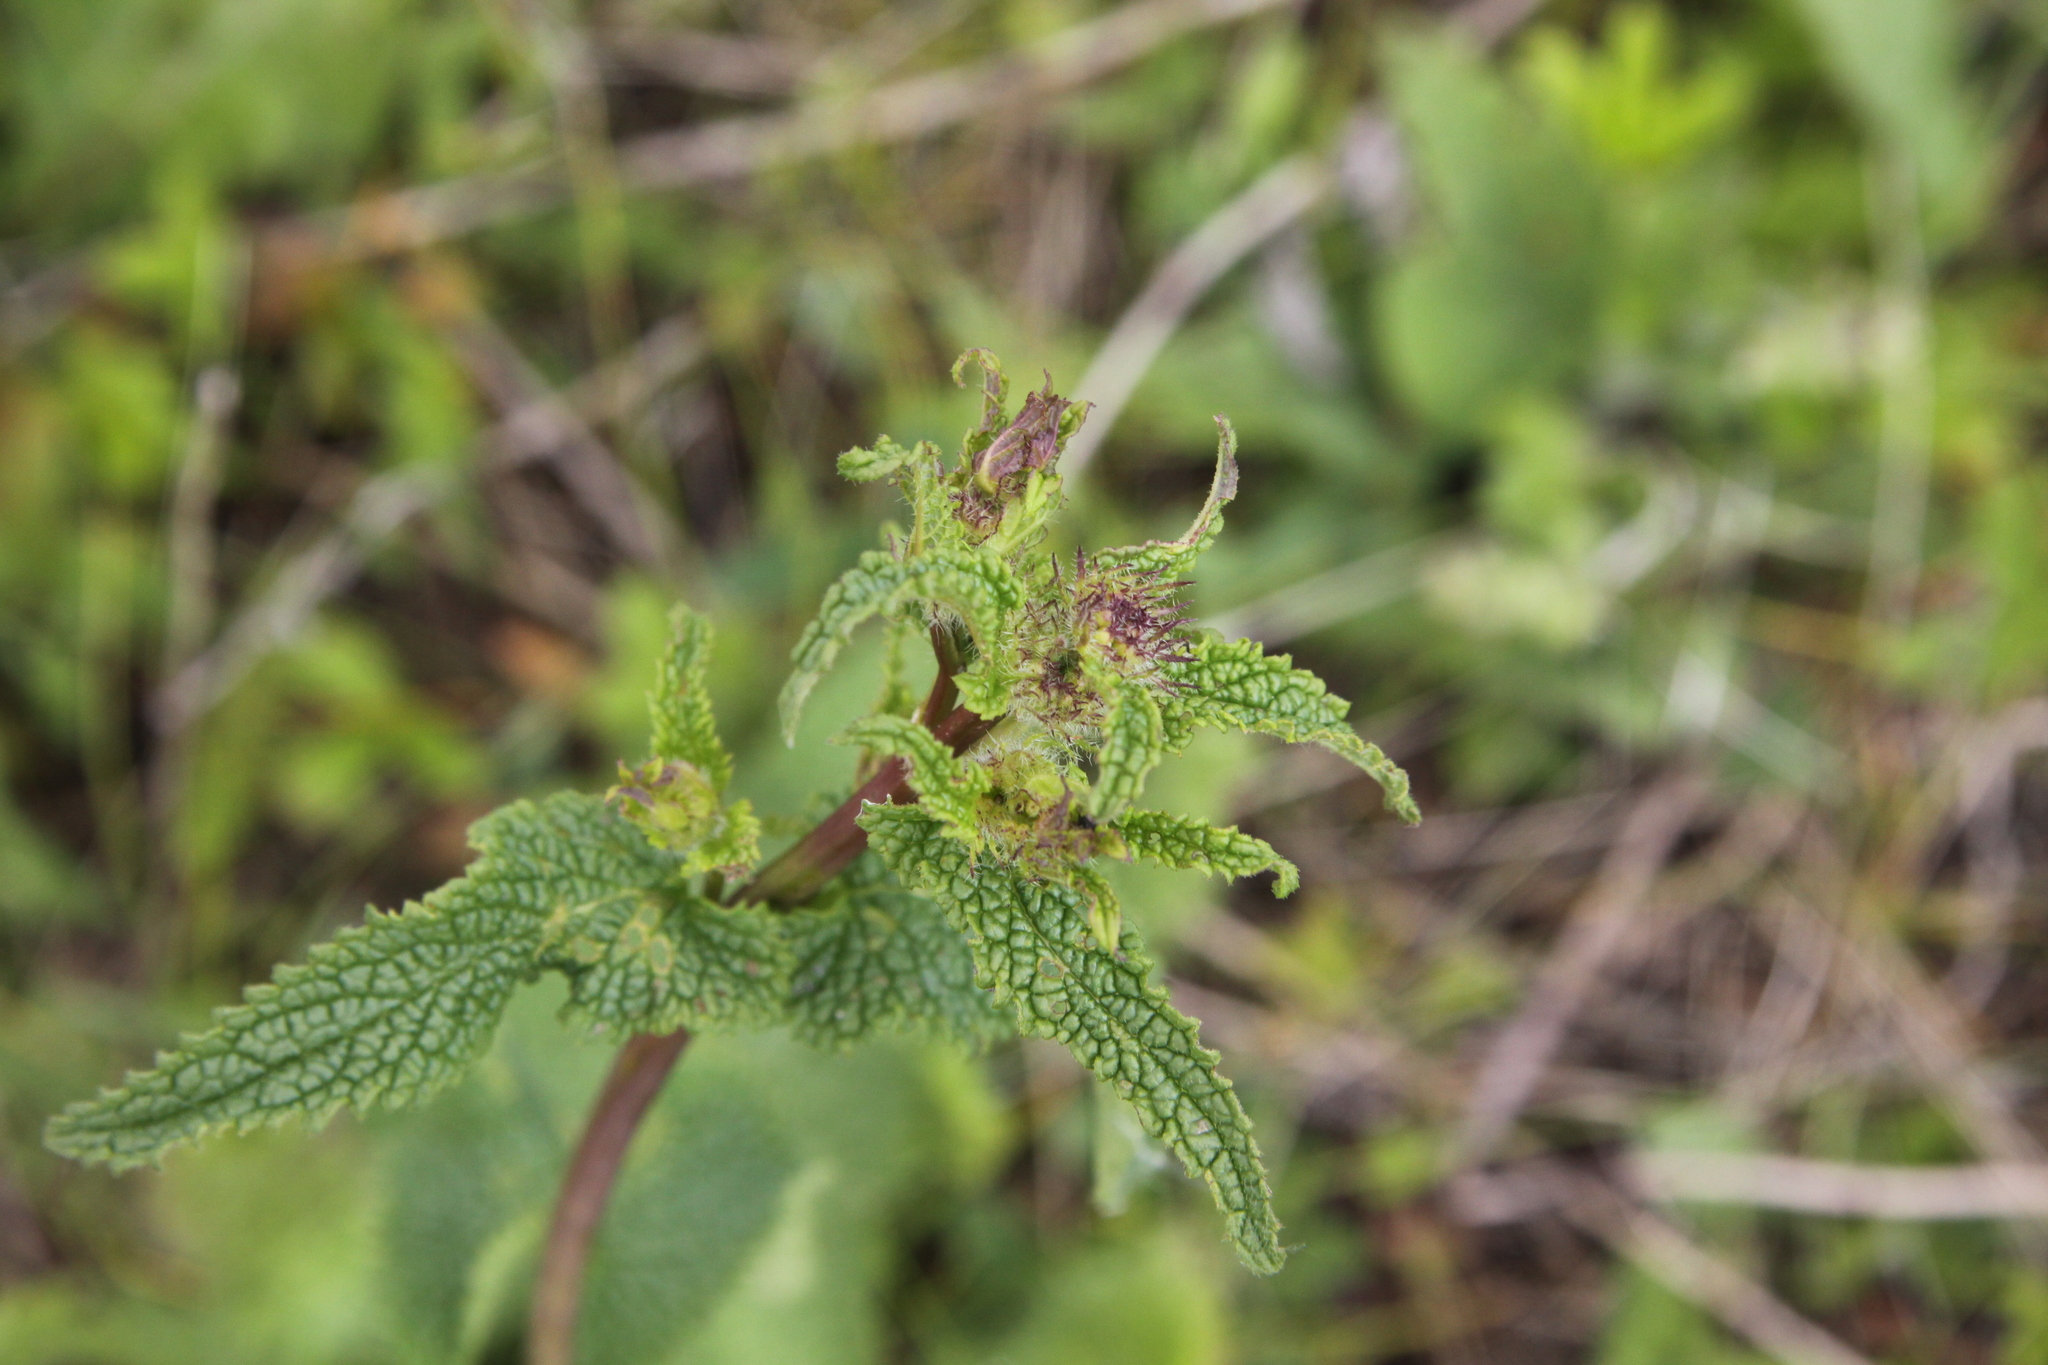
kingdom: Plantae
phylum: Tracheophyta
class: Magnoliopsida
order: Lamiales
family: Lamiaceae
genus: Phlomoides
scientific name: Phlomoides tuberosa
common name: Tuberous jerusalem sage
